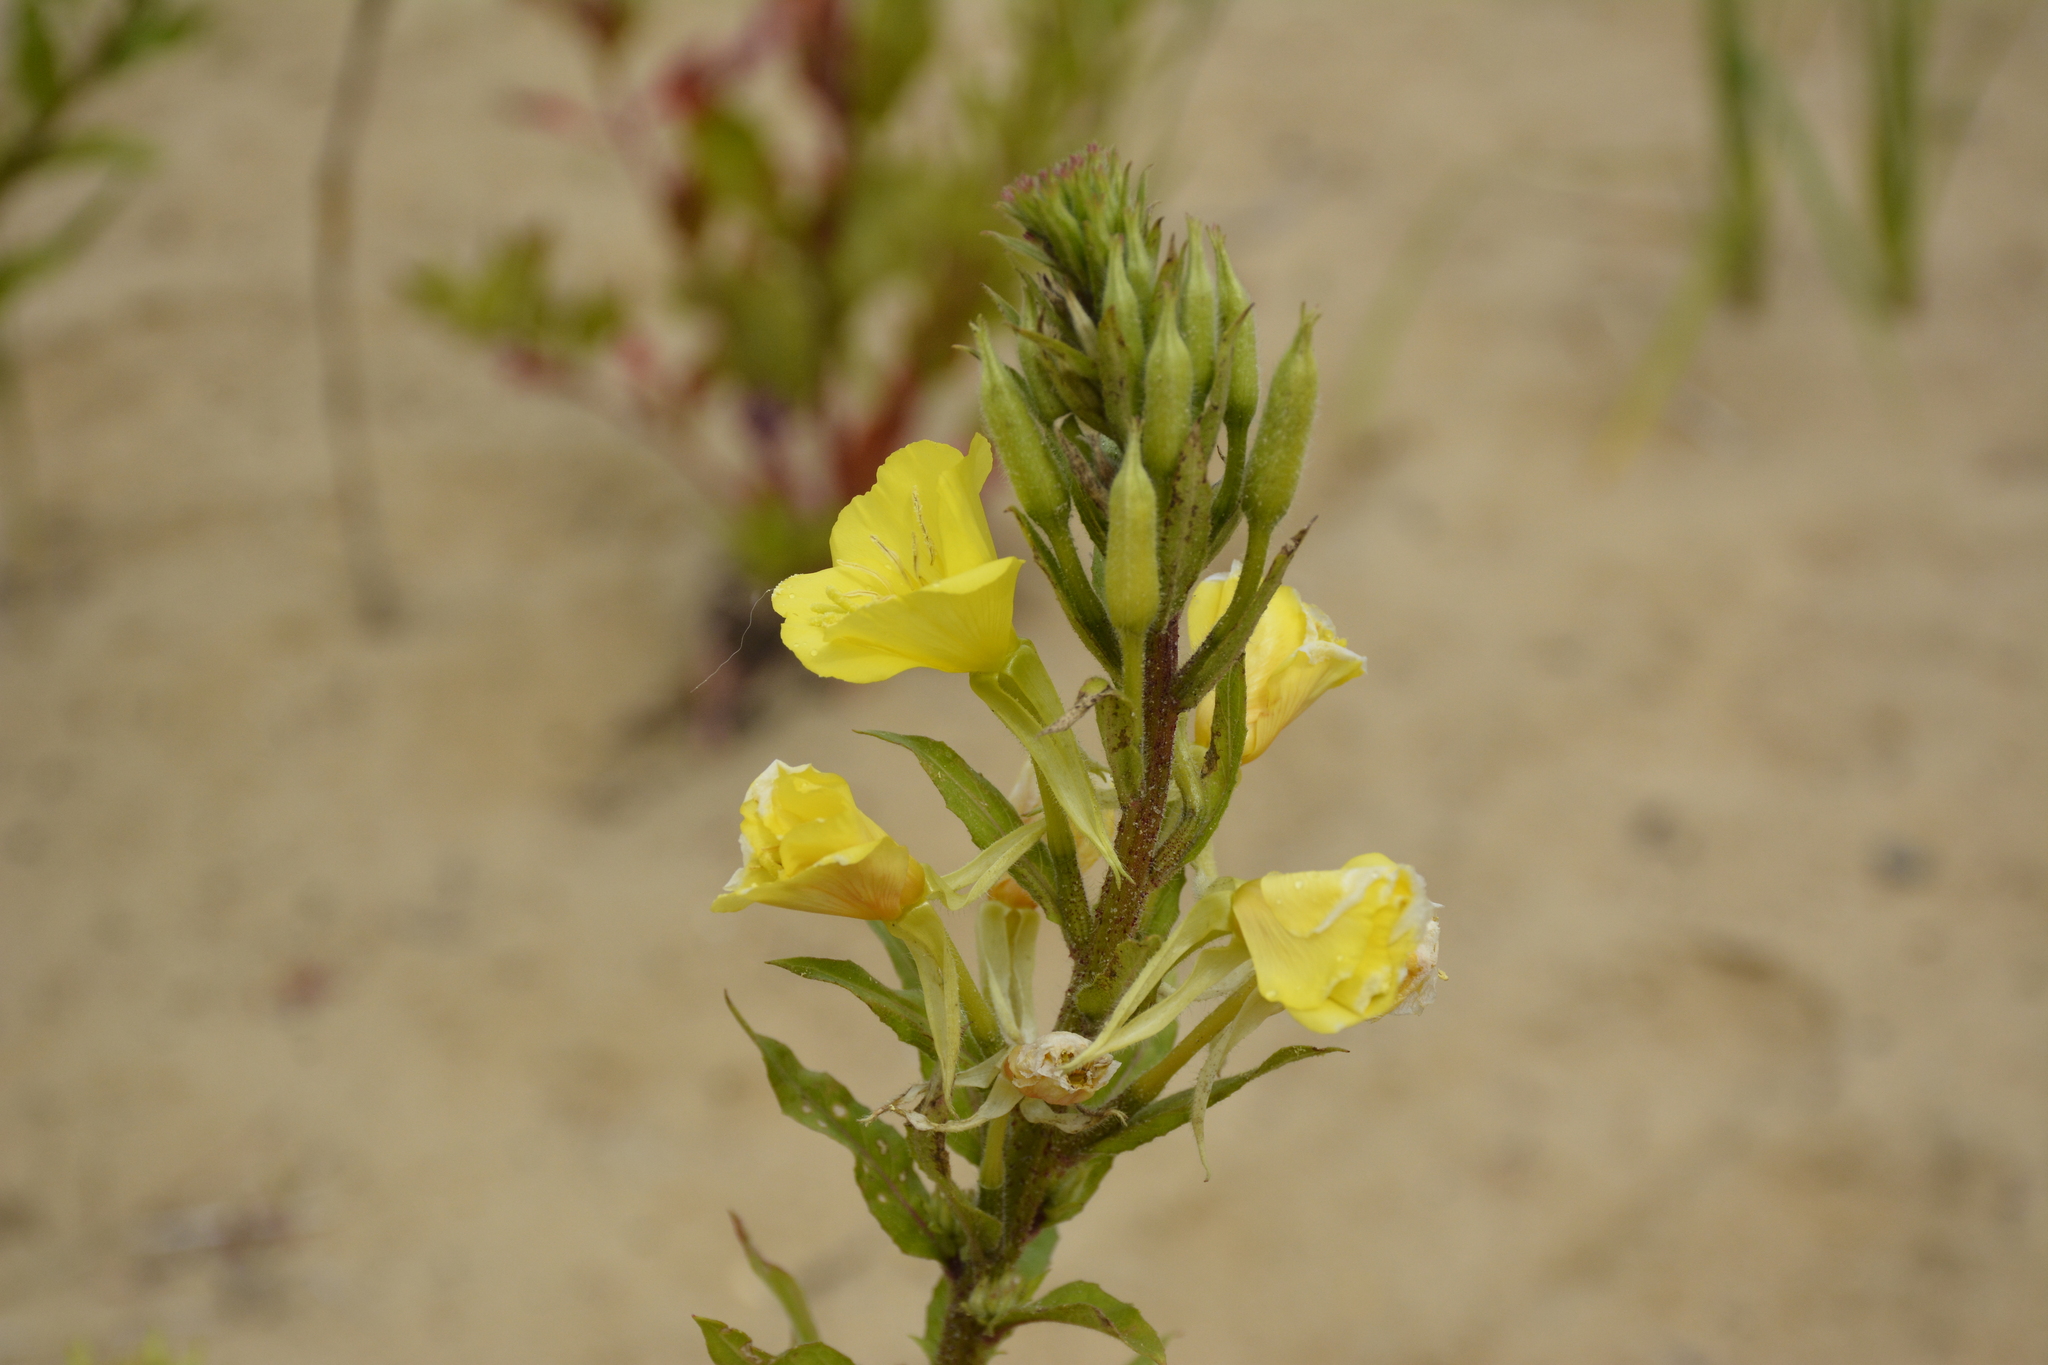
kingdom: Plantae
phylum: Tracheophyta
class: Magnoliopsida
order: Myrtales
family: Onagraceae
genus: Oenothera
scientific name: Oenothera rubricaulis
